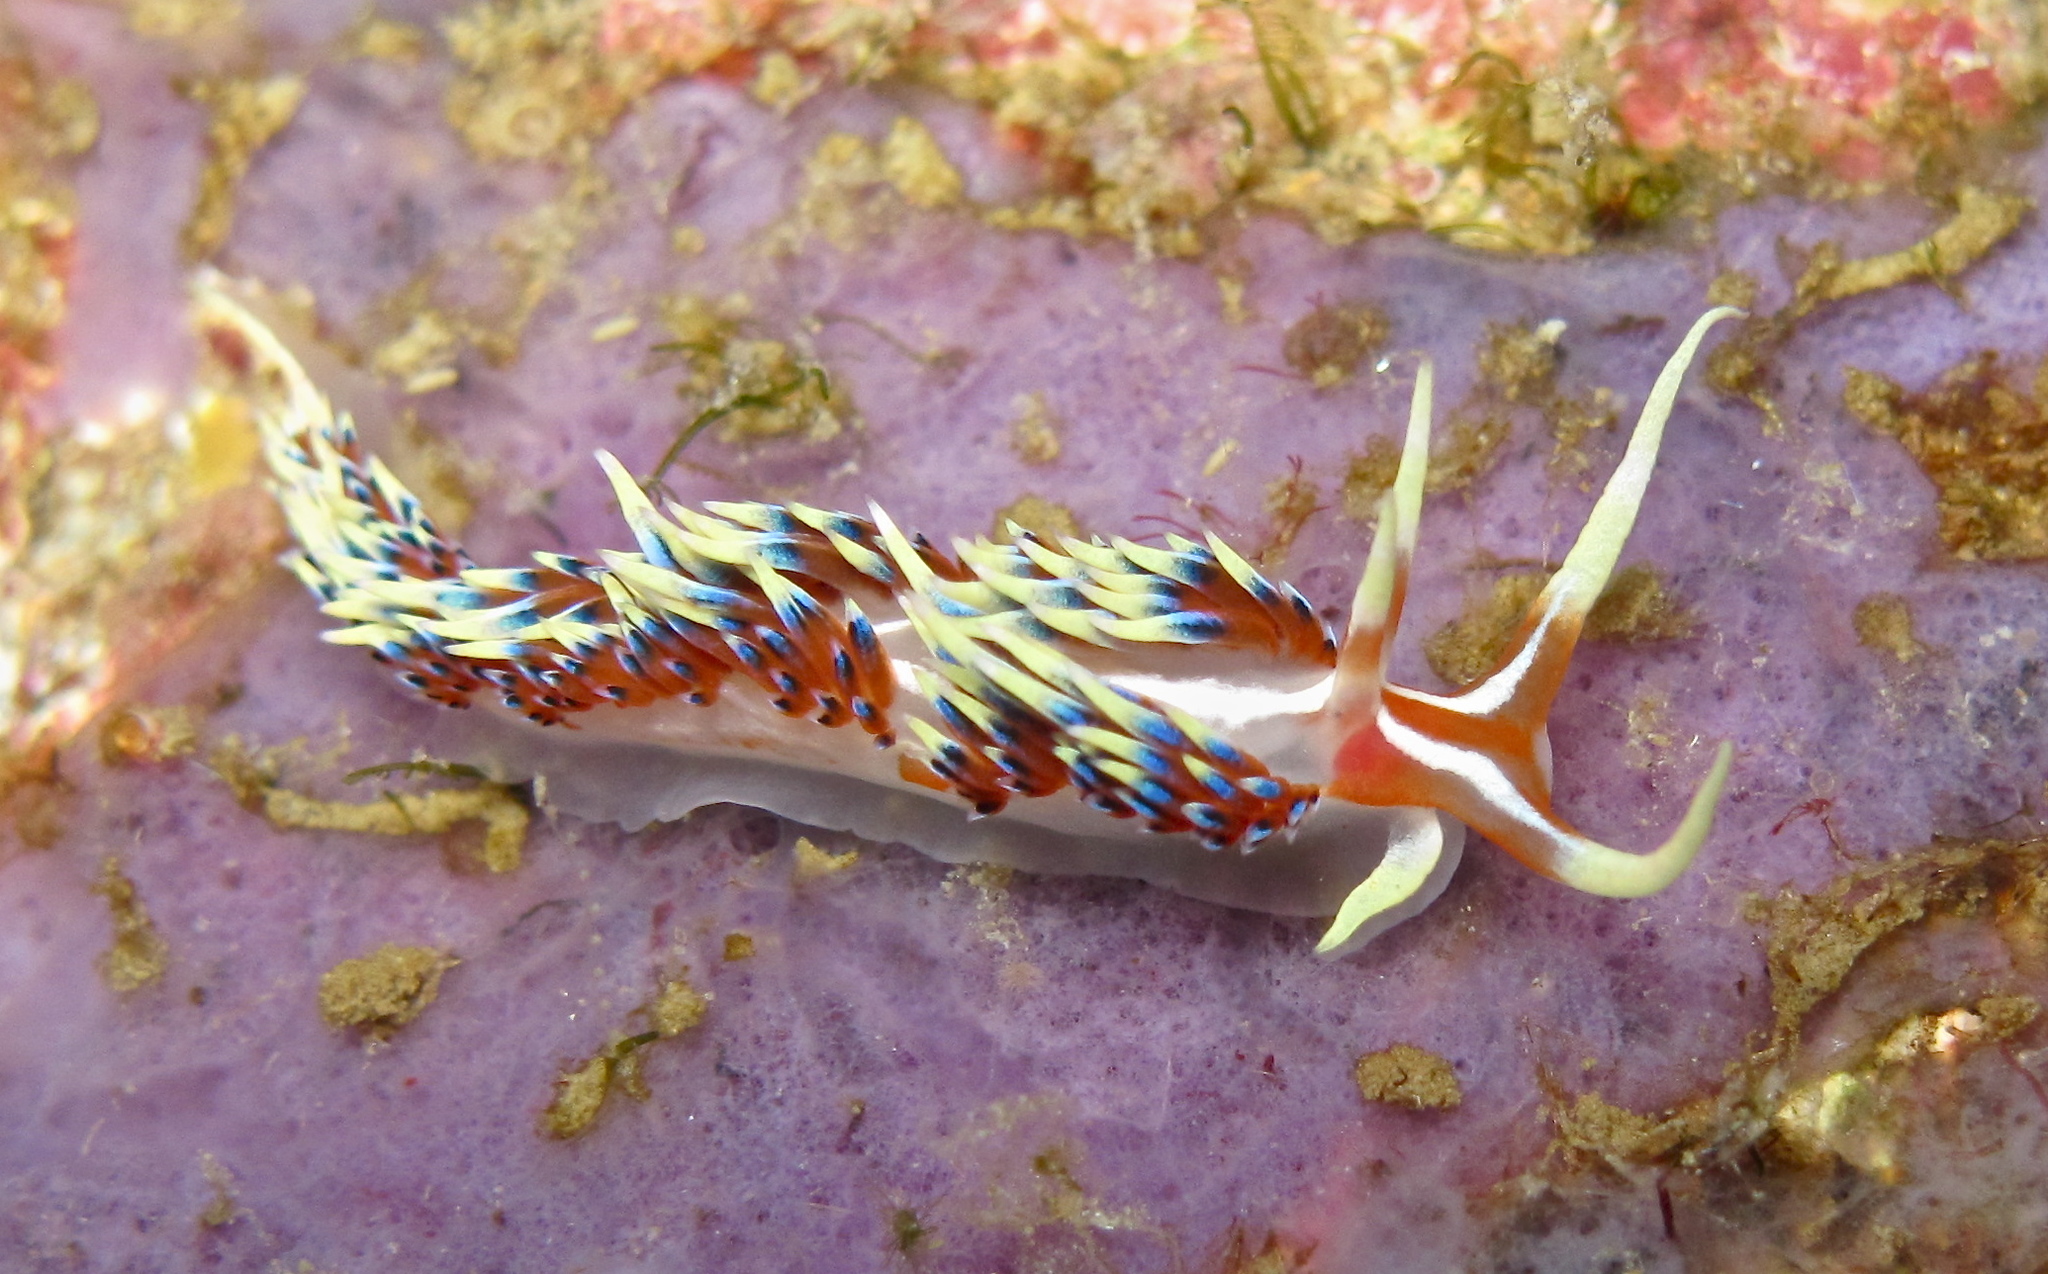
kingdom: Animalia
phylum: Mollusca
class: Gastropoda
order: Nudibranchia
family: Facelinidae
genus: Caloria
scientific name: Caloria indica
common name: Sea slug
